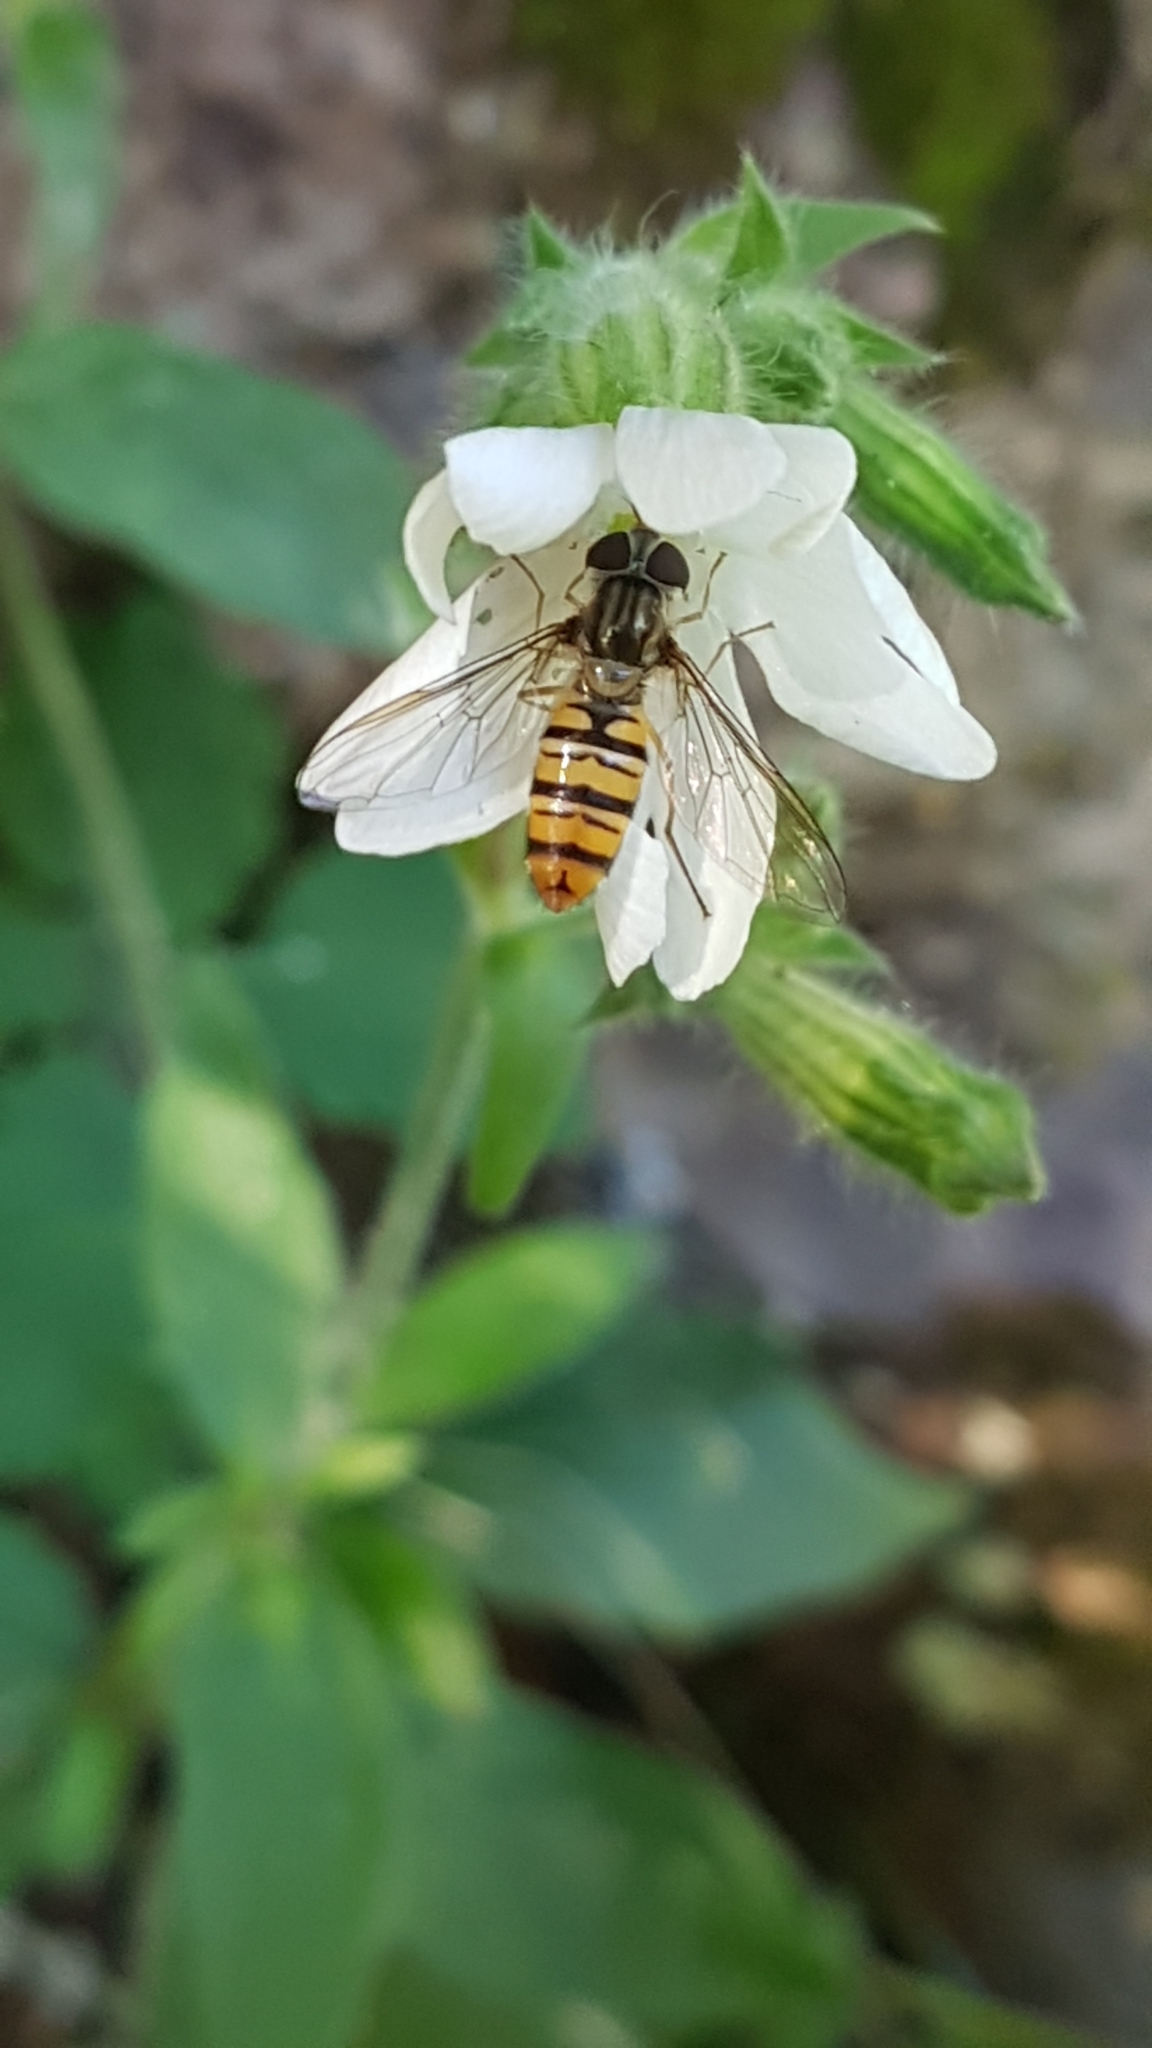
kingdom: Animalia
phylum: Arthropoda
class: Insecta
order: Diptera
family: Syrphidae
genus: Episyrphus
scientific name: Episyrphus balteatus
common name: Marmalade hoverfly
